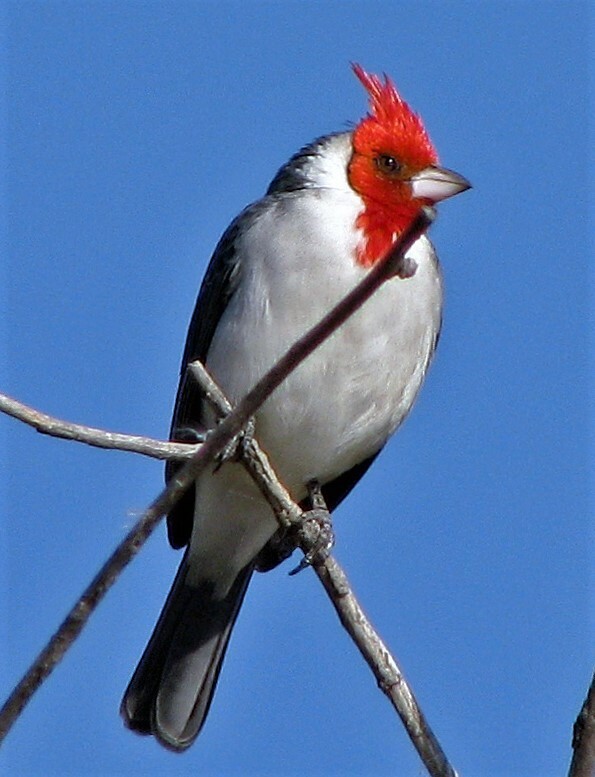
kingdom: Animalia
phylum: Chordata
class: Aves
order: Passeriformes
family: Thraupidae
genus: Paroaria
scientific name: Paroaria coronata
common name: Red-crested cardinal
